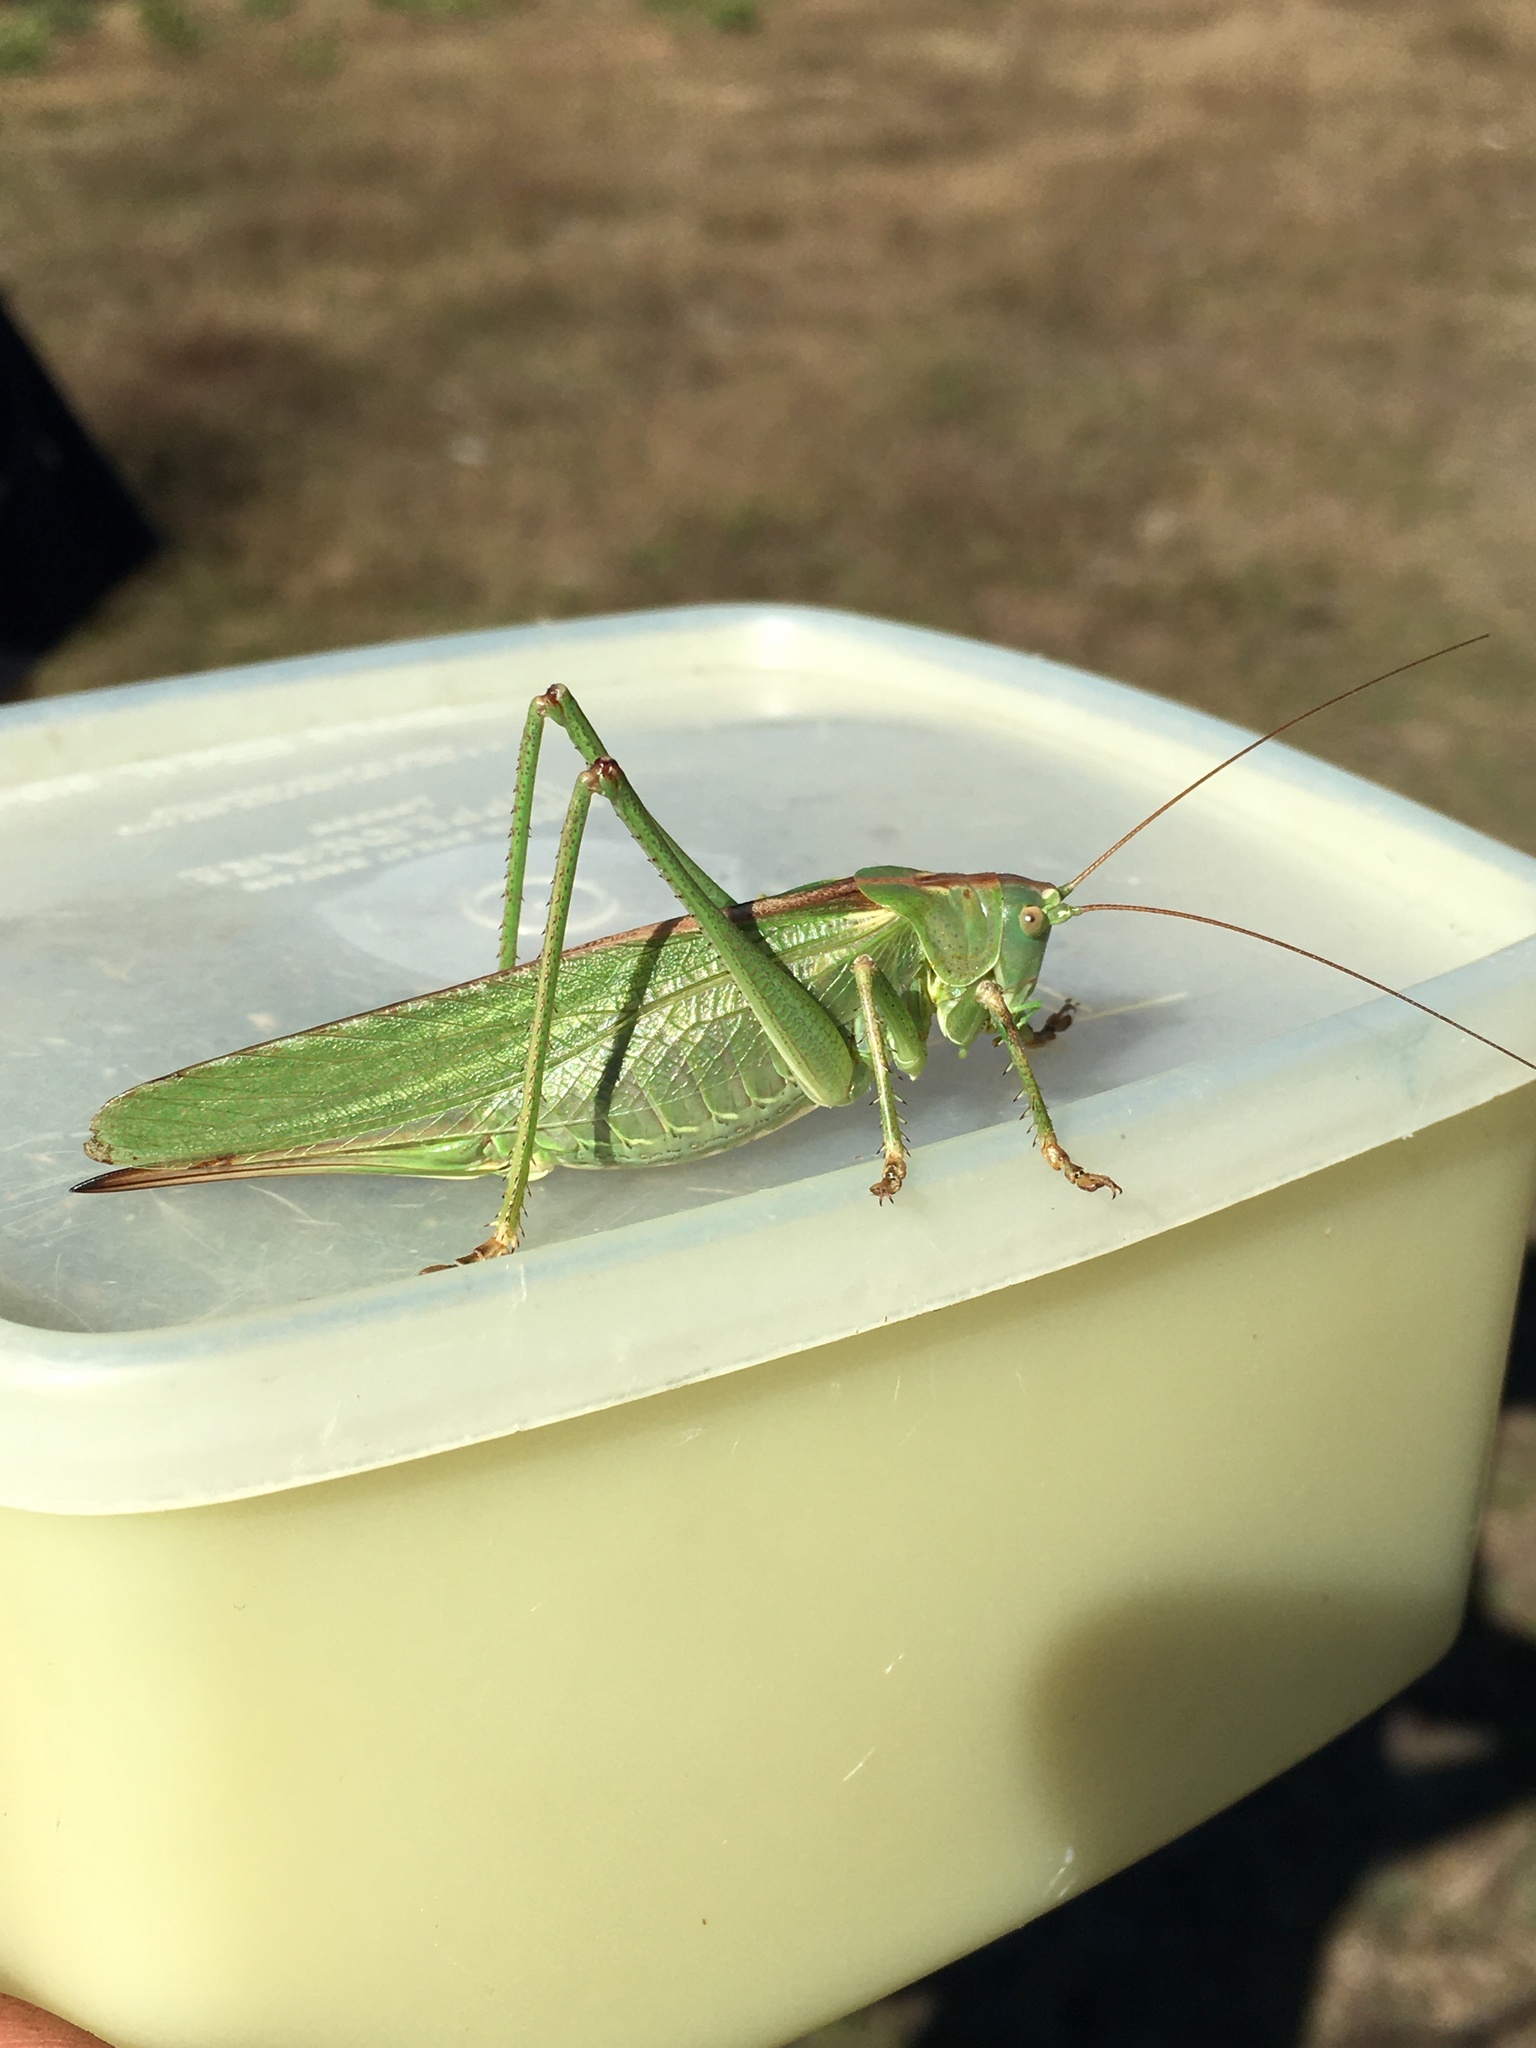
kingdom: Animalia
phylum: Arthropoda
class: Insecta
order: Orthoptera
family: Tettigoniidae
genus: Tettigonia
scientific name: Tettigonia viridissima
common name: Great green bush-cricket
